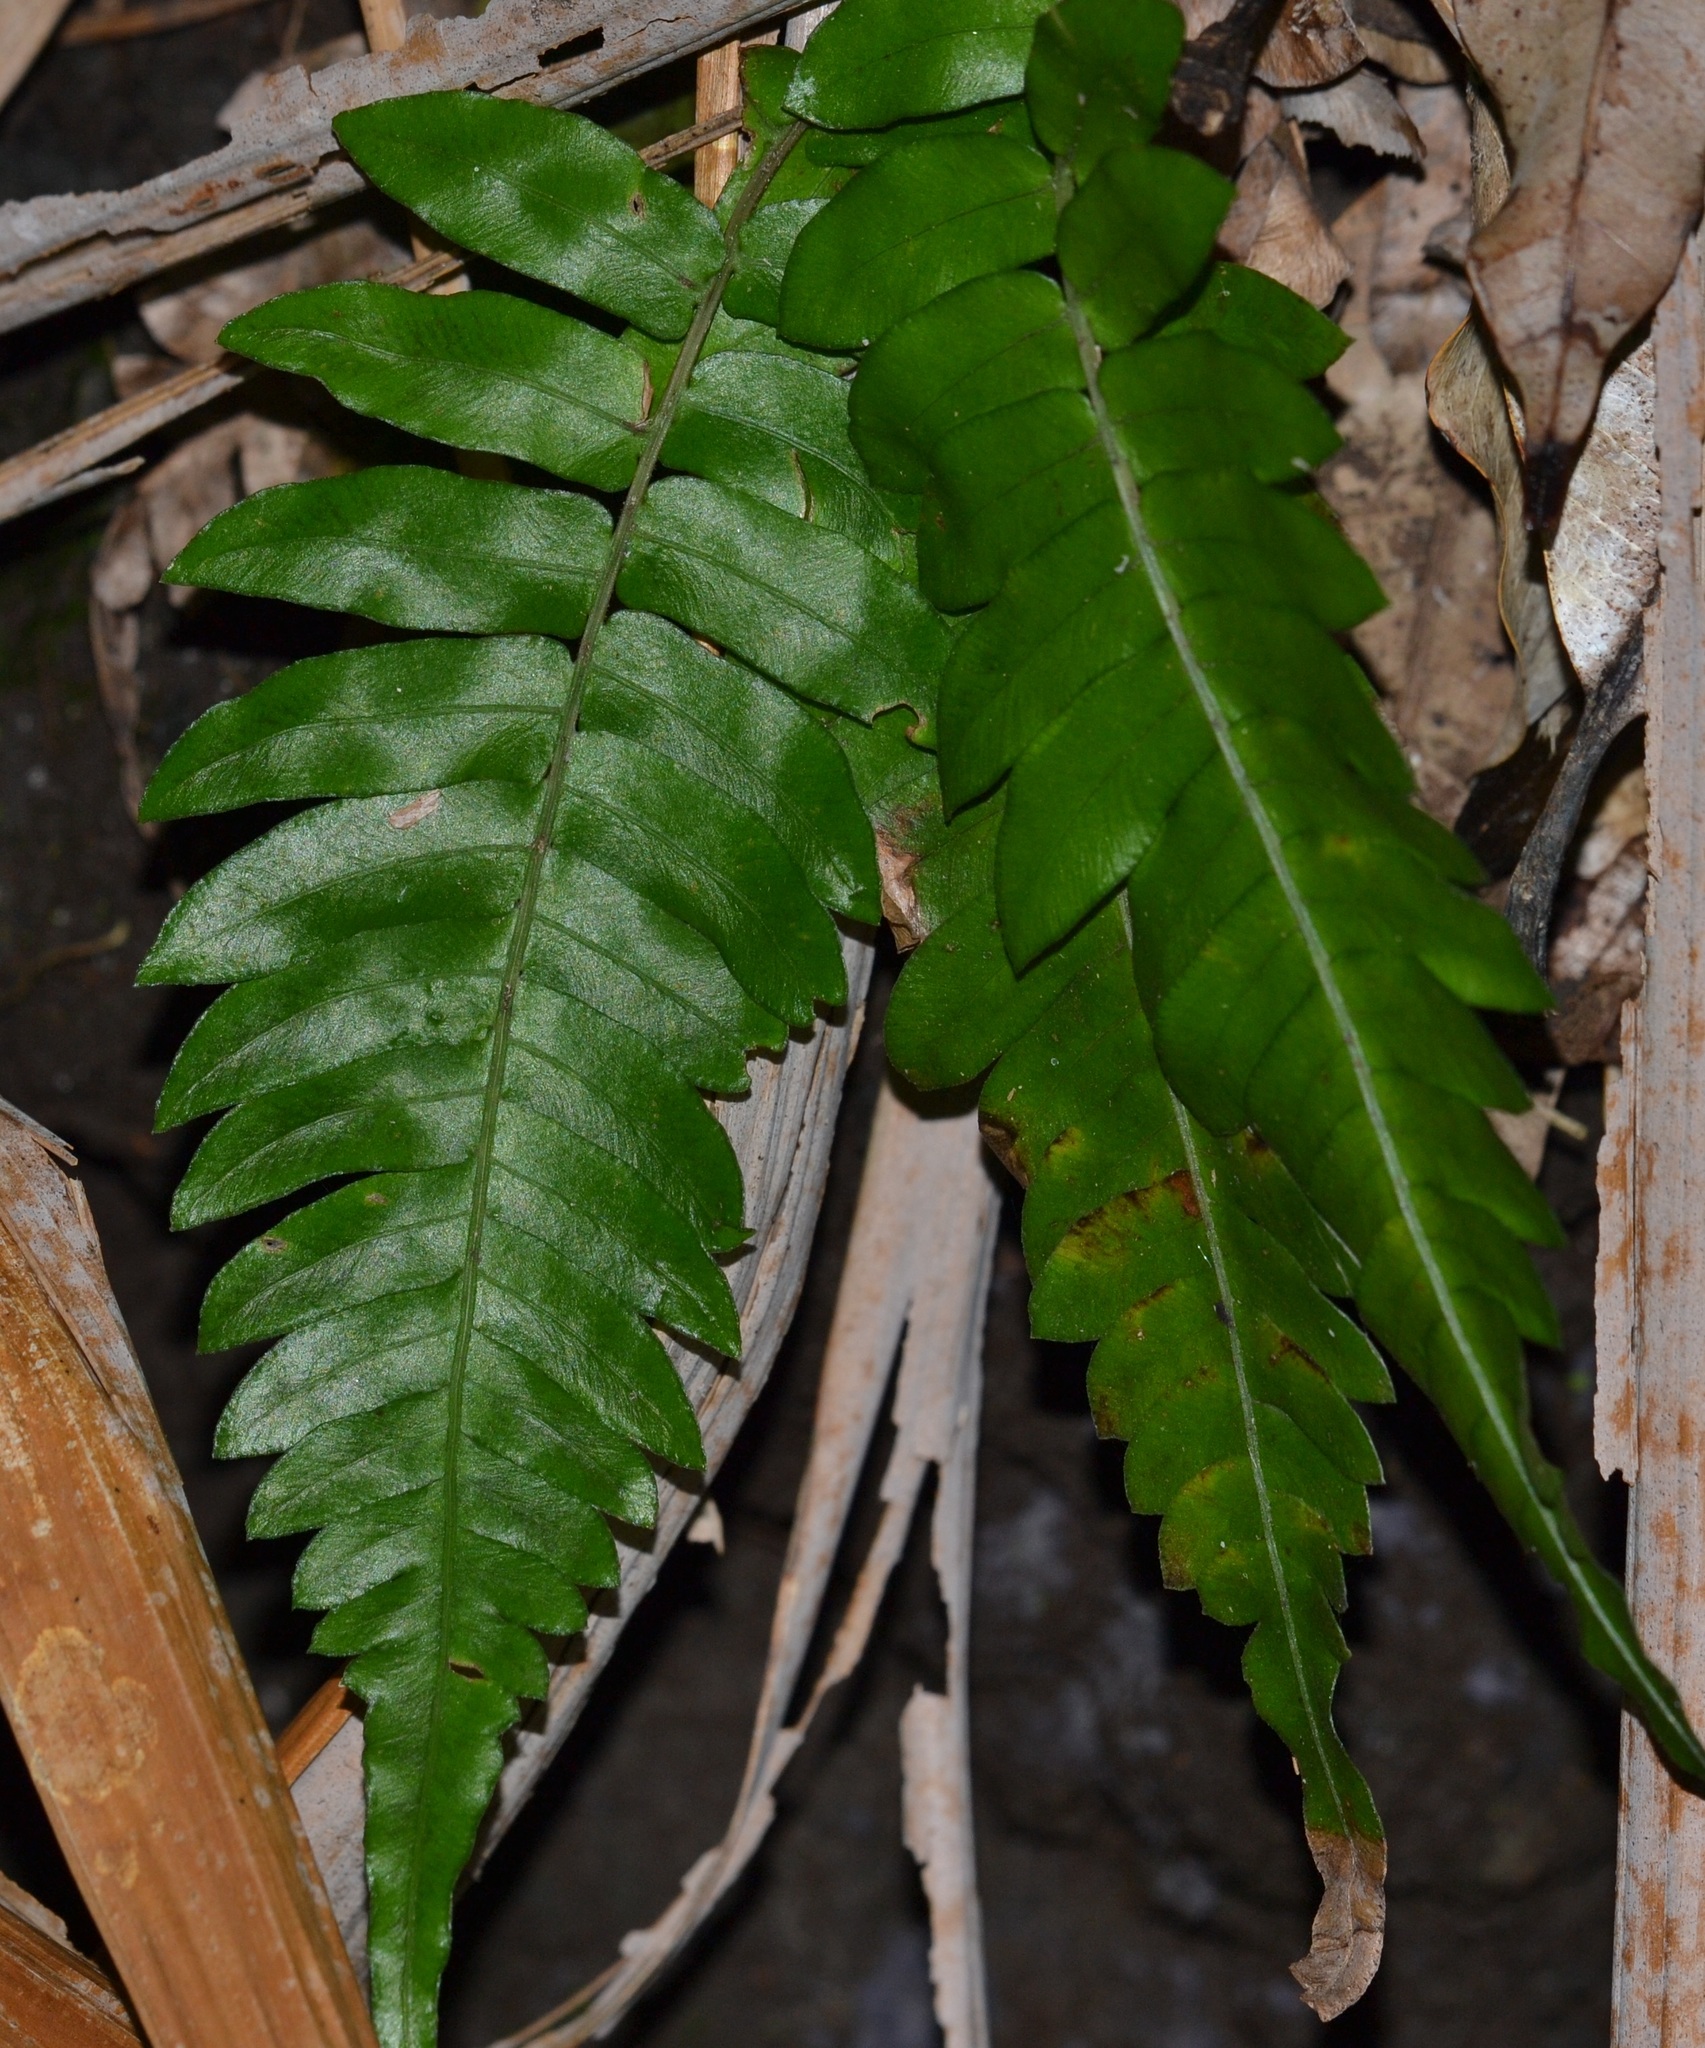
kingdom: Plantae
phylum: Tracheophyta
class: Polypodiopsida
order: Polypodiales
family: Blechnaceae
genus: Blechnum
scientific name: Blechnum appendiculatum
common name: Palm fern
